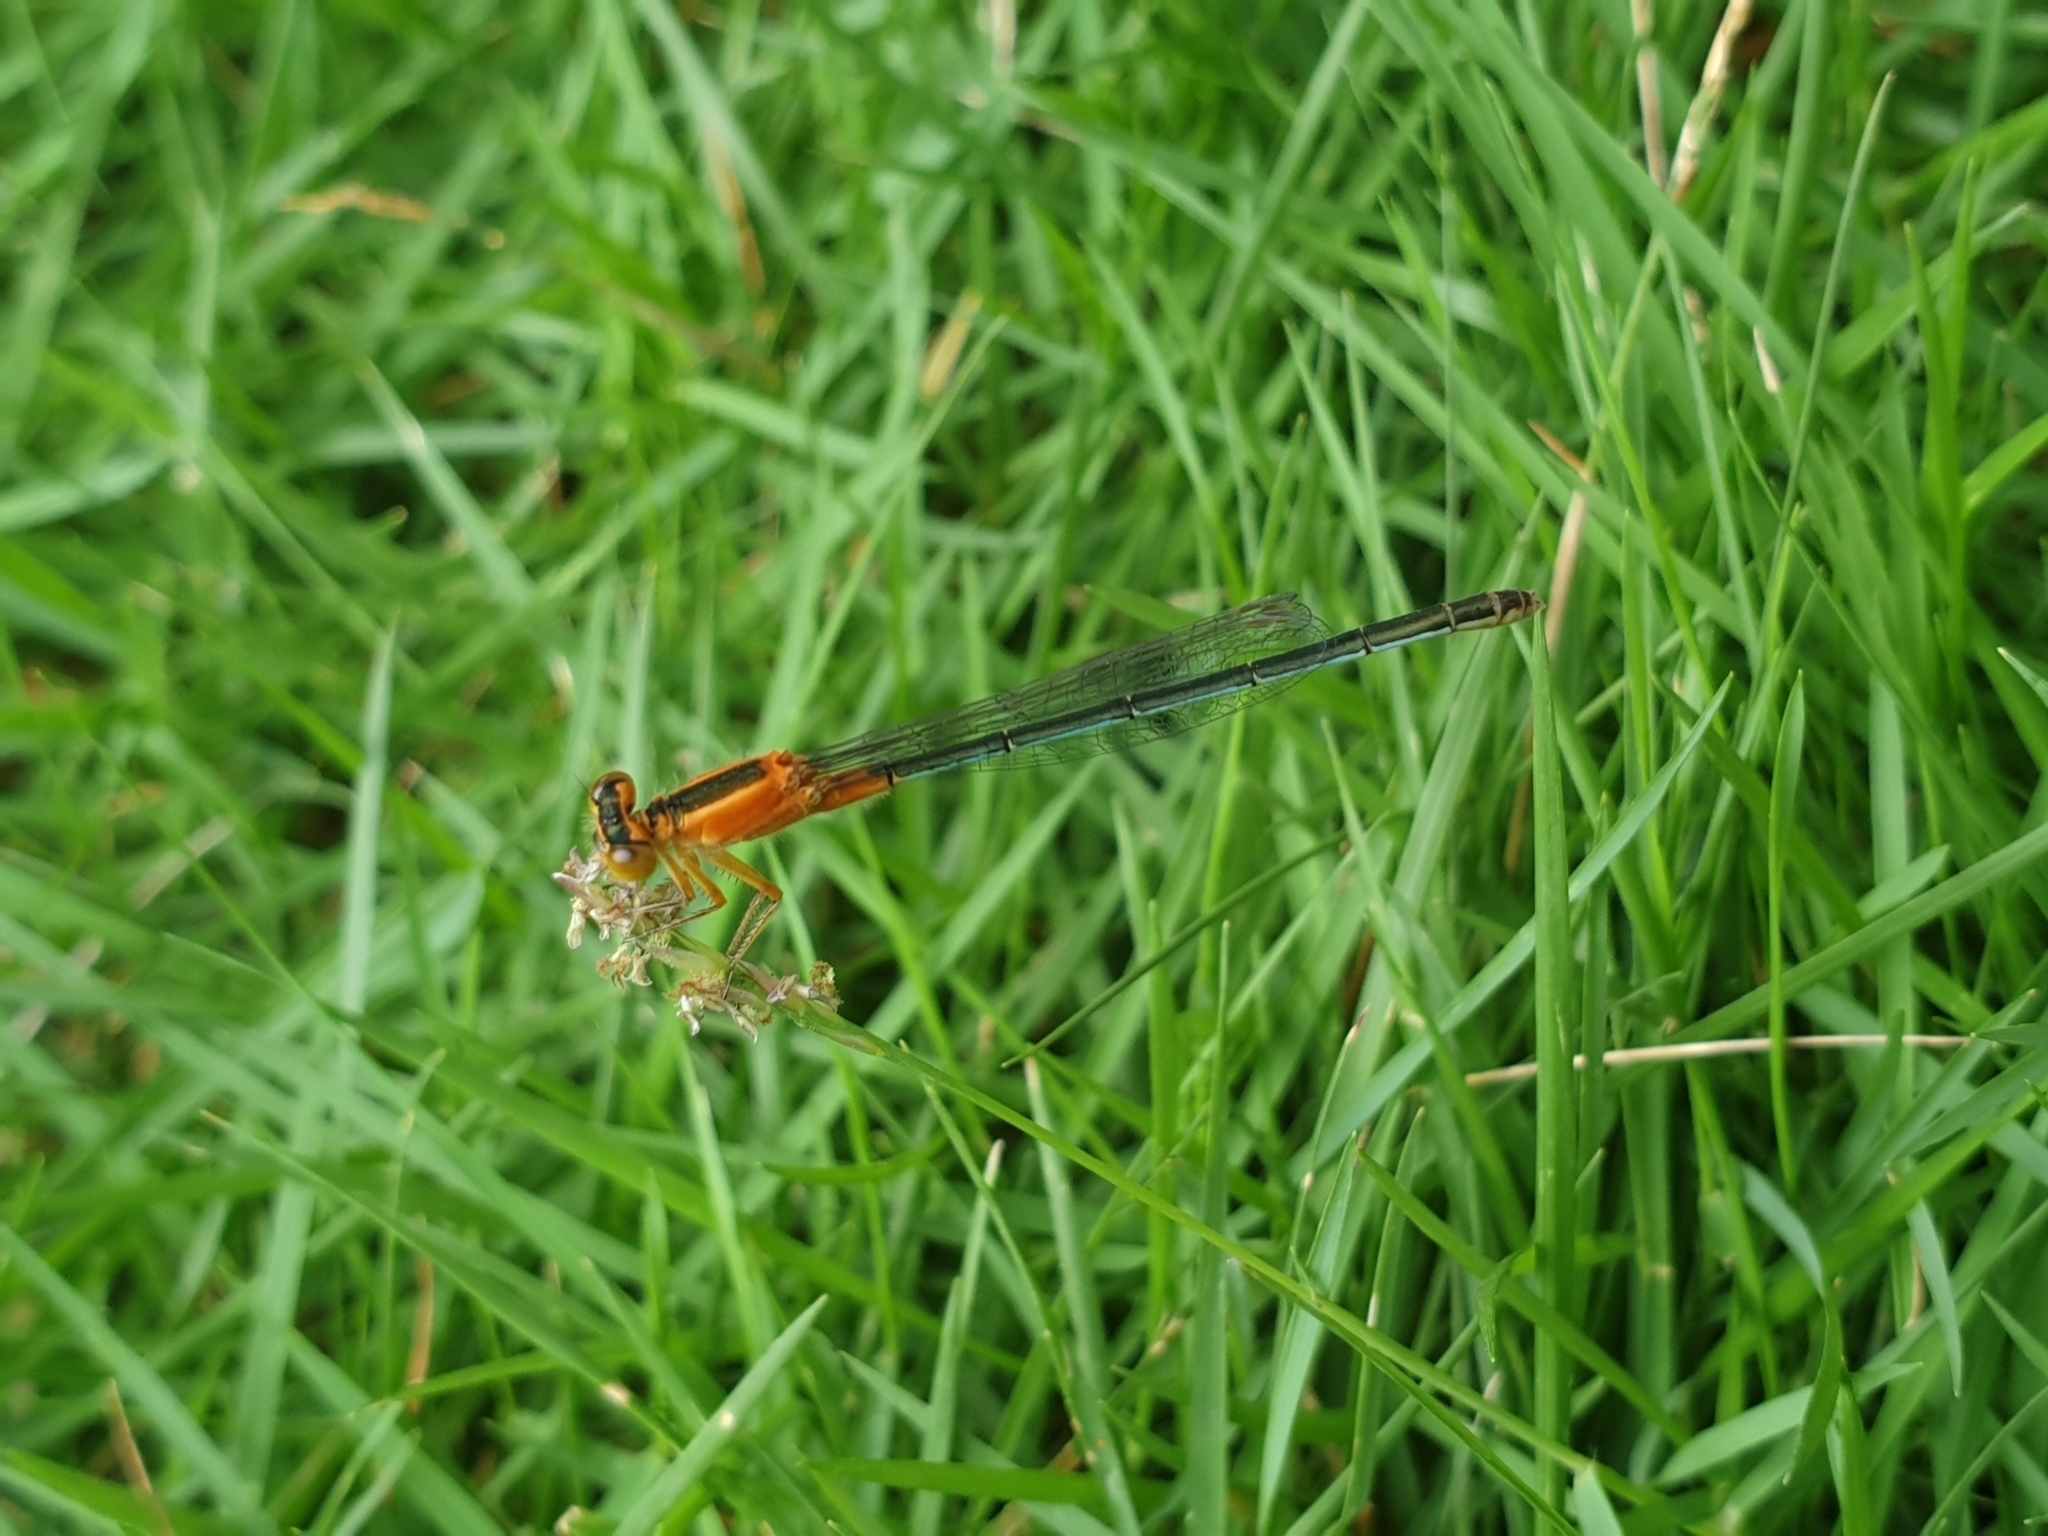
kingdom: Animalia
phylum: Arthropoda
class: Insecta
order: Odonata
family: Coenagrionidae
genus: Ischnura
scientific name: Ischnura senegalensis
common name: Tropical bluetail
